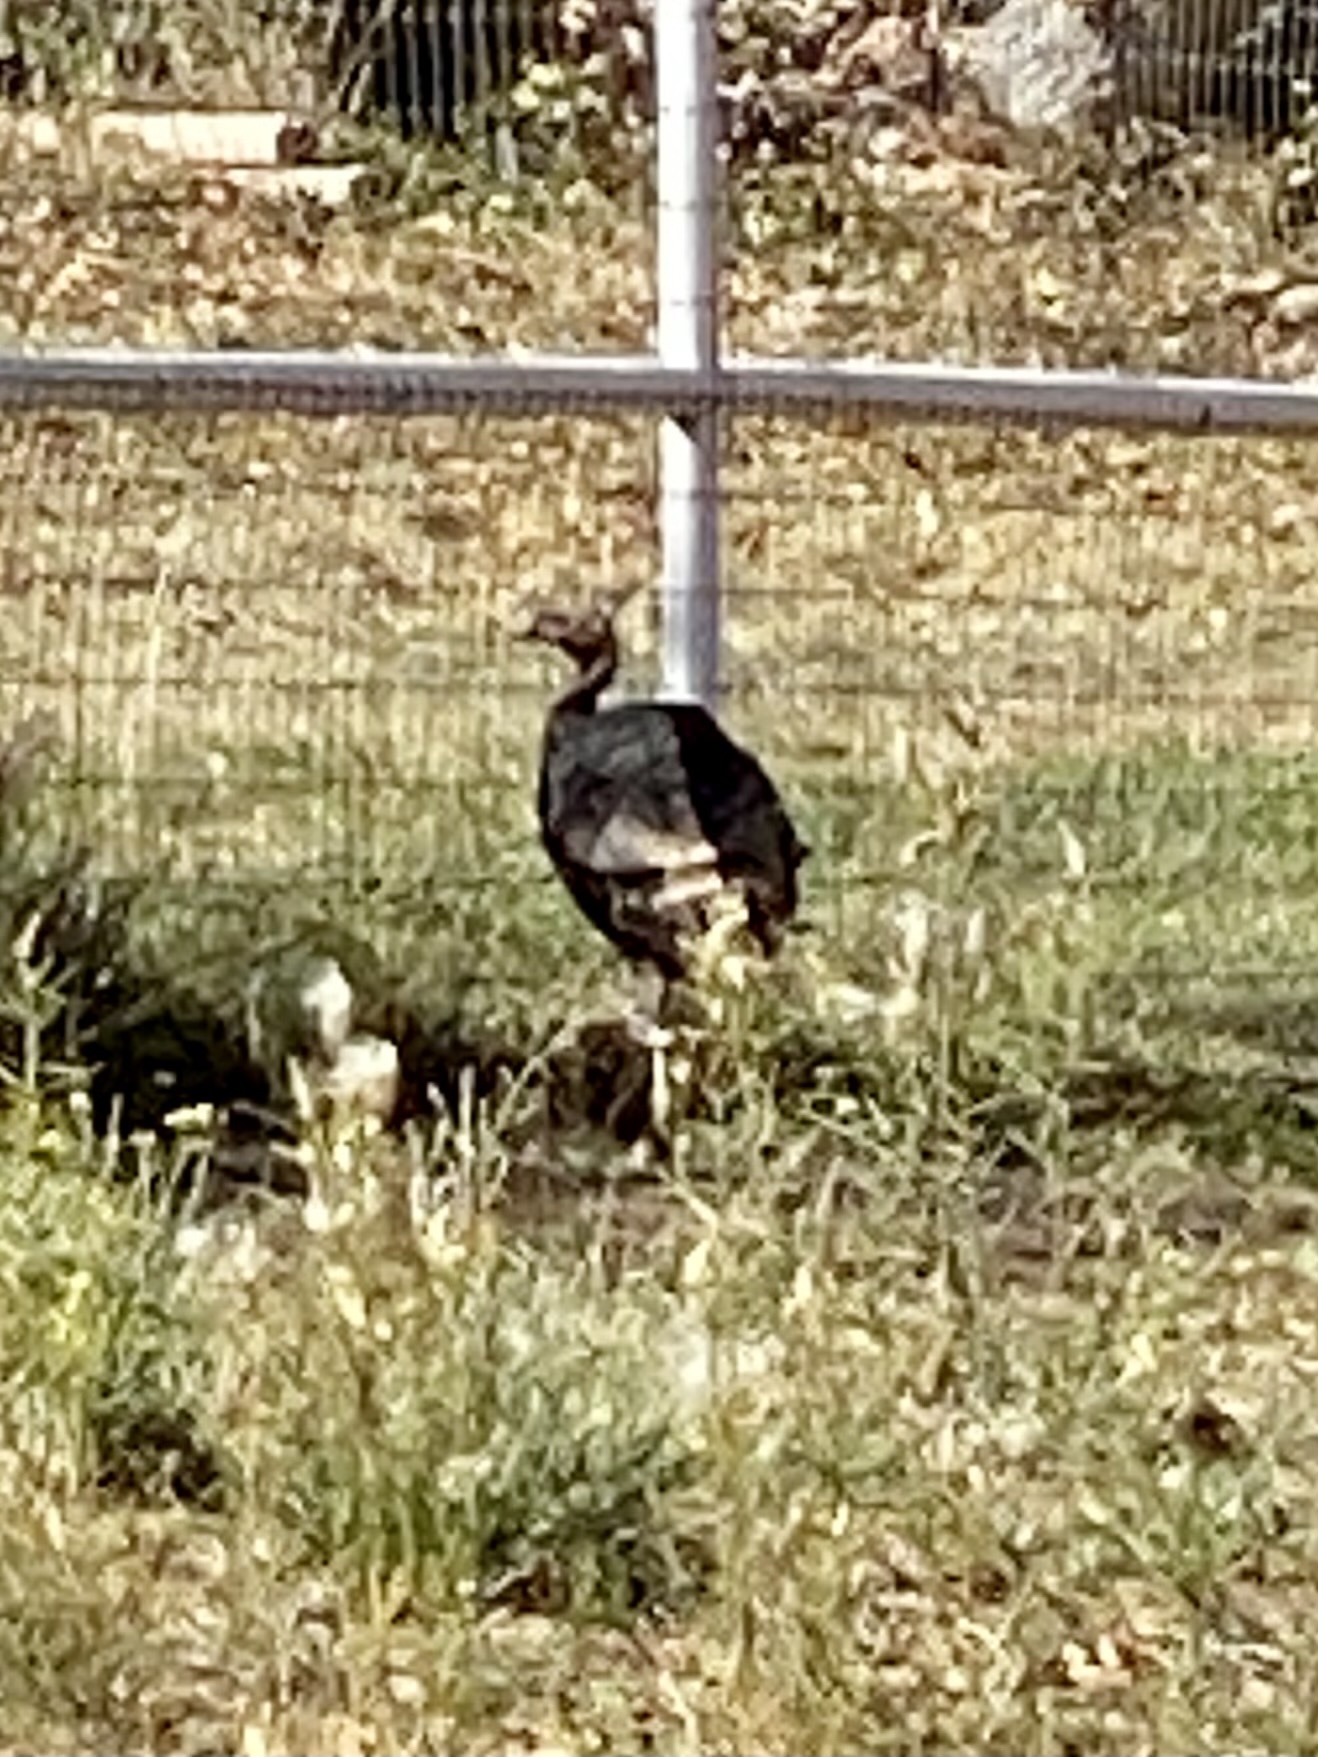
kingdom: Animalia
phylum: Chordata
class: Aves
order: Galliformes
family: Phasianidae
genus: Meleagris
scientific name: Meleagris gallopavo
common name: Wild turkey
